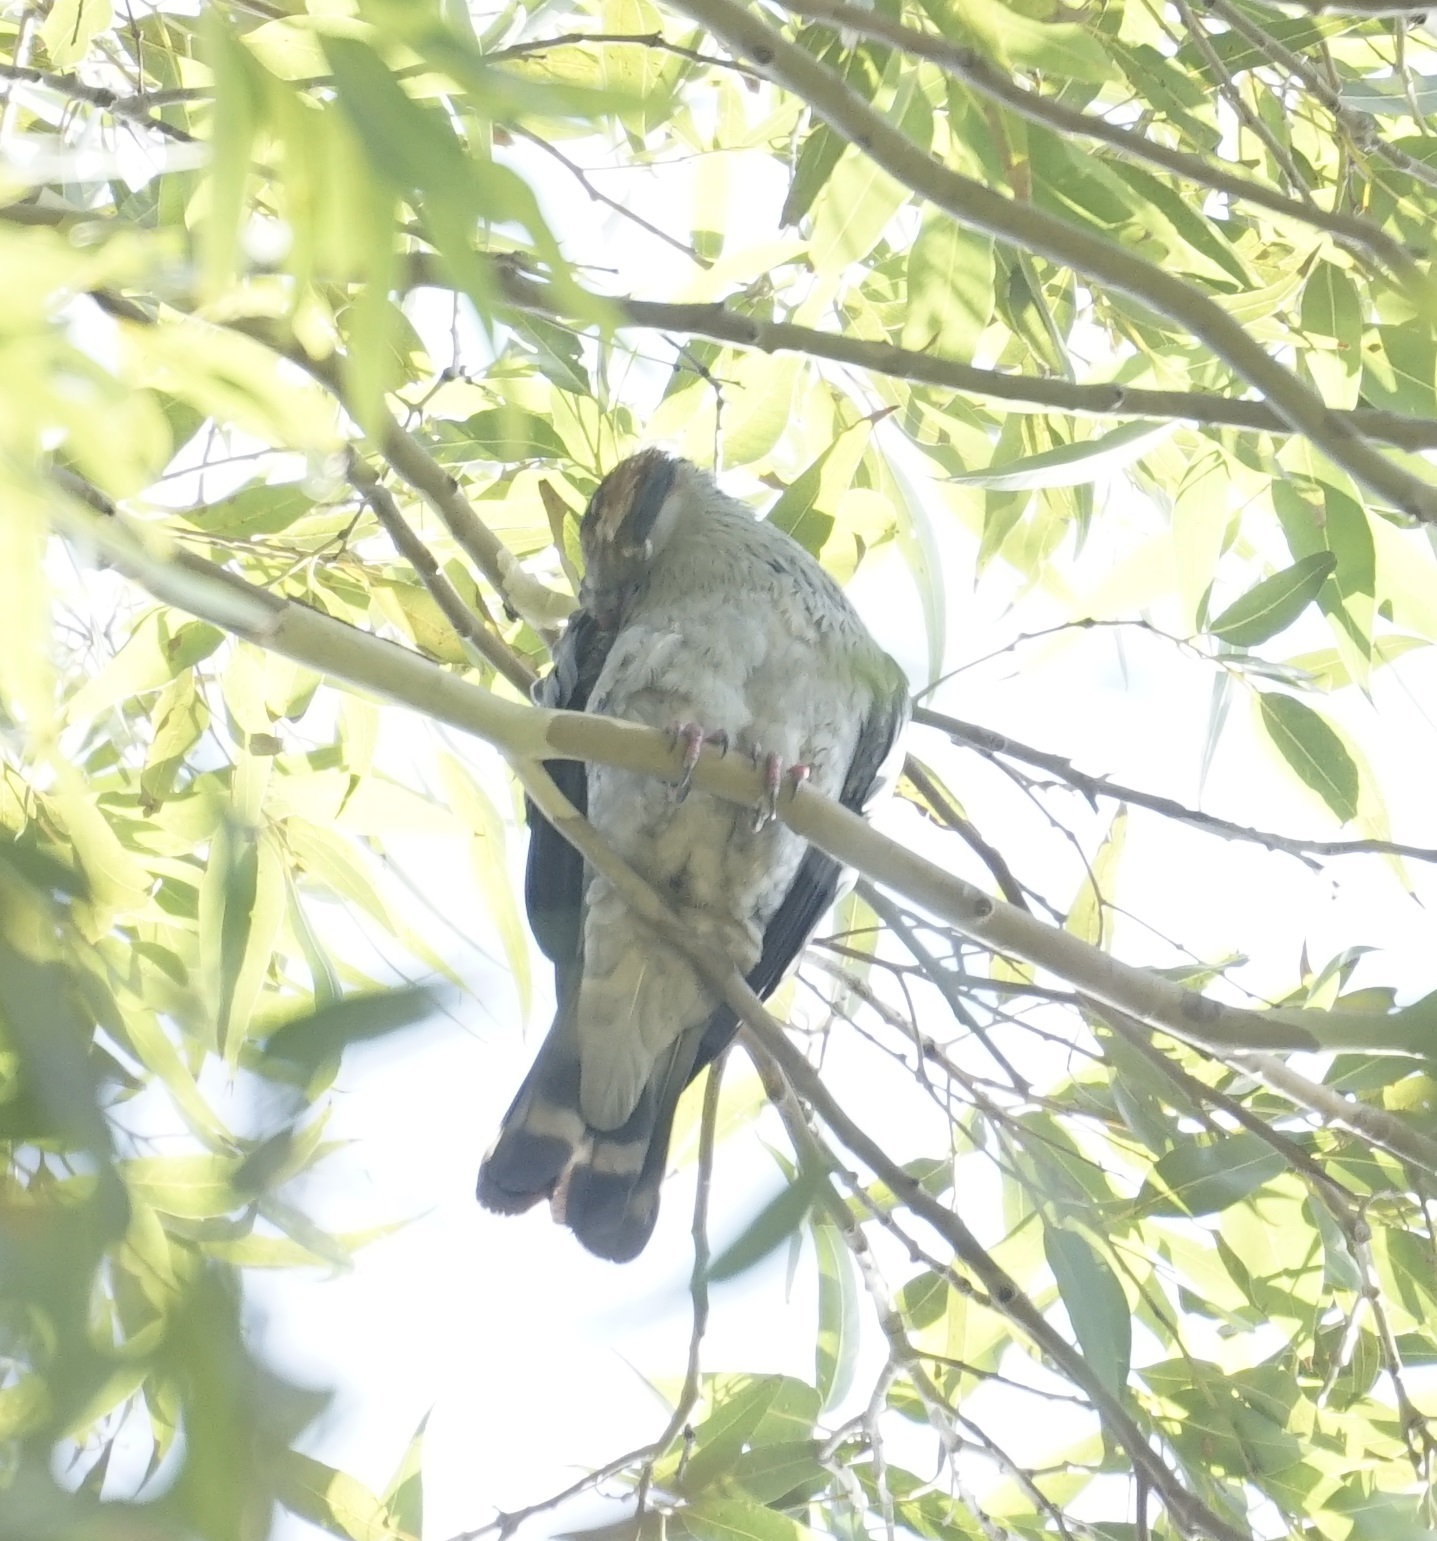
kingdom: Animalia
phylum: Chordata
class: Aves
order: Columbiformes
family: Columbidae
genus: Lopholaimus
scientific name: Lopholaimus antarcticus
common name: Topknot pigeon
